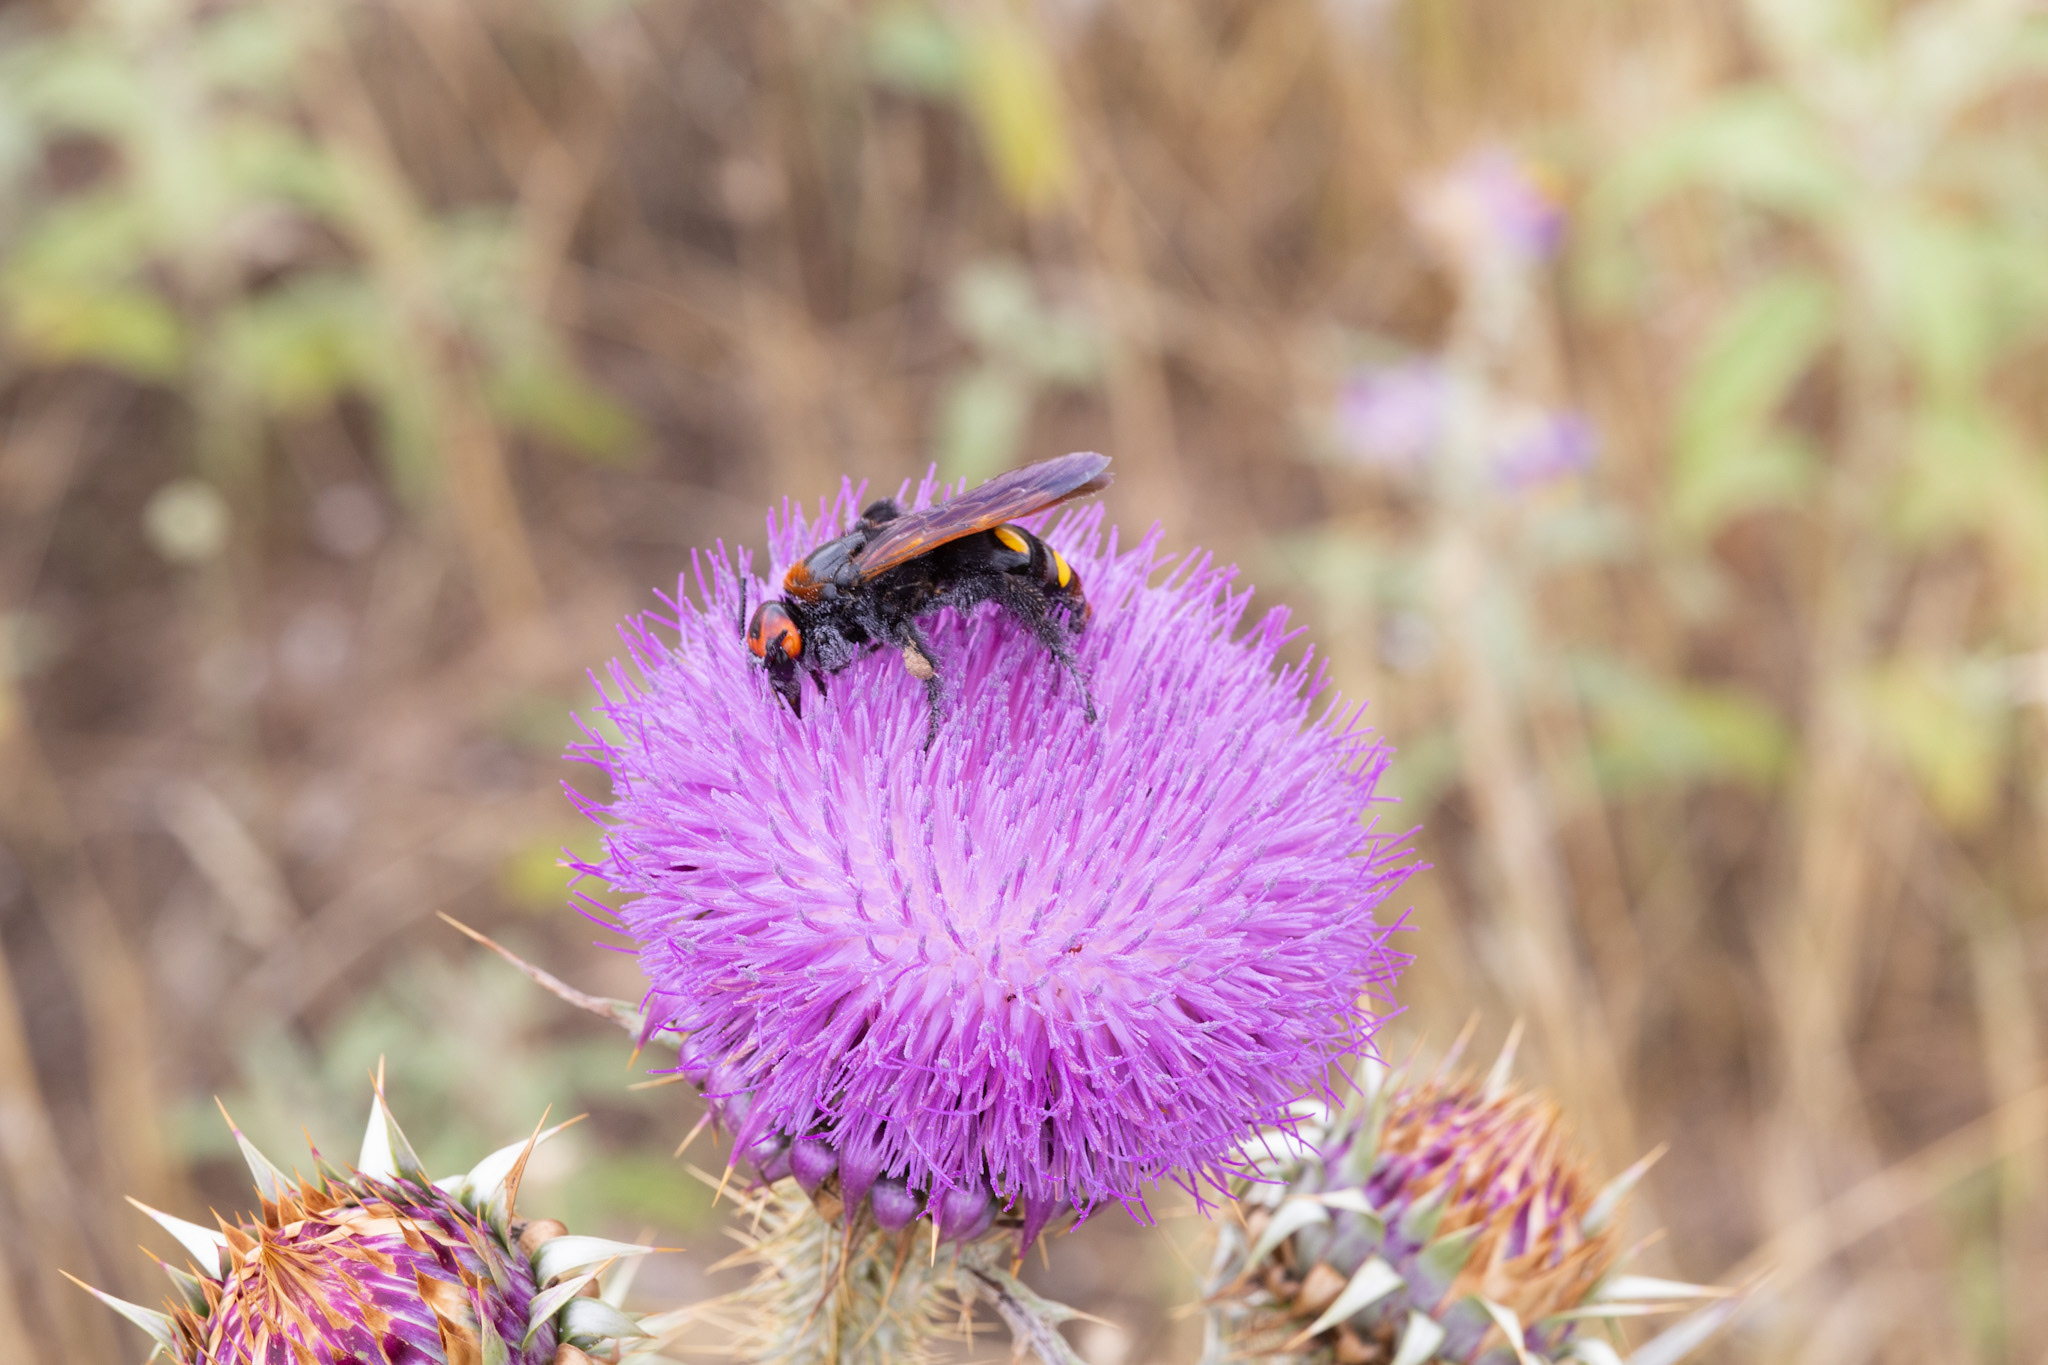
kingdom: Animalia
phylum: Arthropoda
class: Insecta
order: Hymenoptera
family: Scoliidae
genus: Megascolia
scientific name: Megascolia maculata
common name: Mammoth wasp
